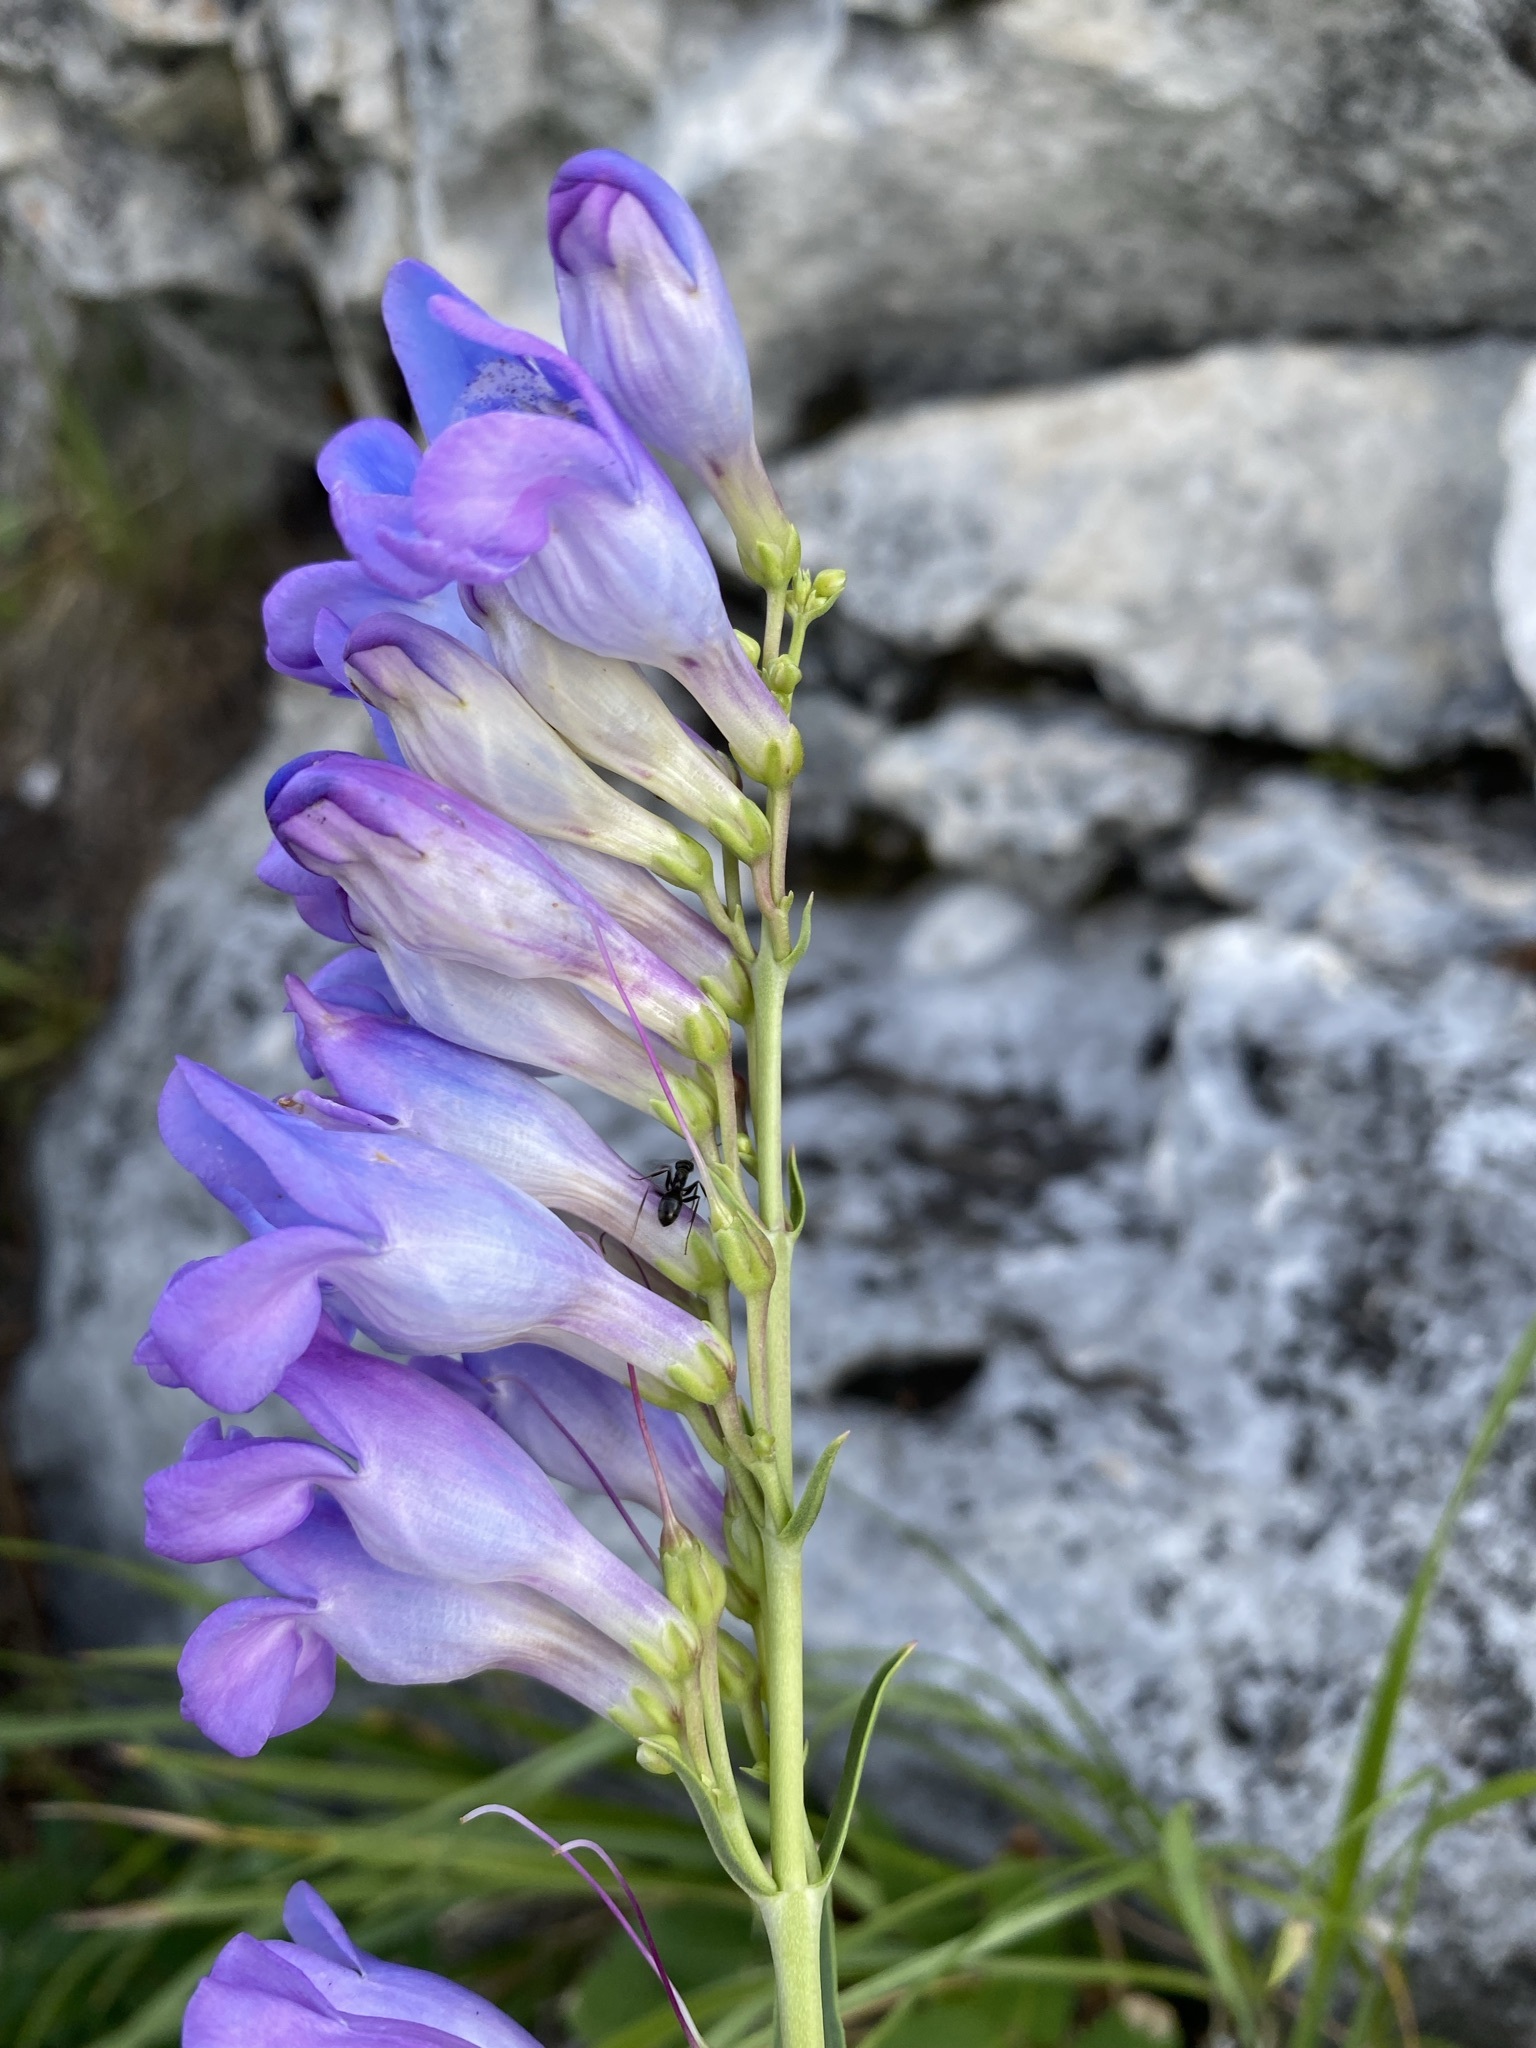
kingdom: Plantae
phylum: Tracheophyta
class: Magnoliopsida
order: Lamiales
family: Plantaginaceae
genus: Penstemon
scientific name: Penstemon glaber
